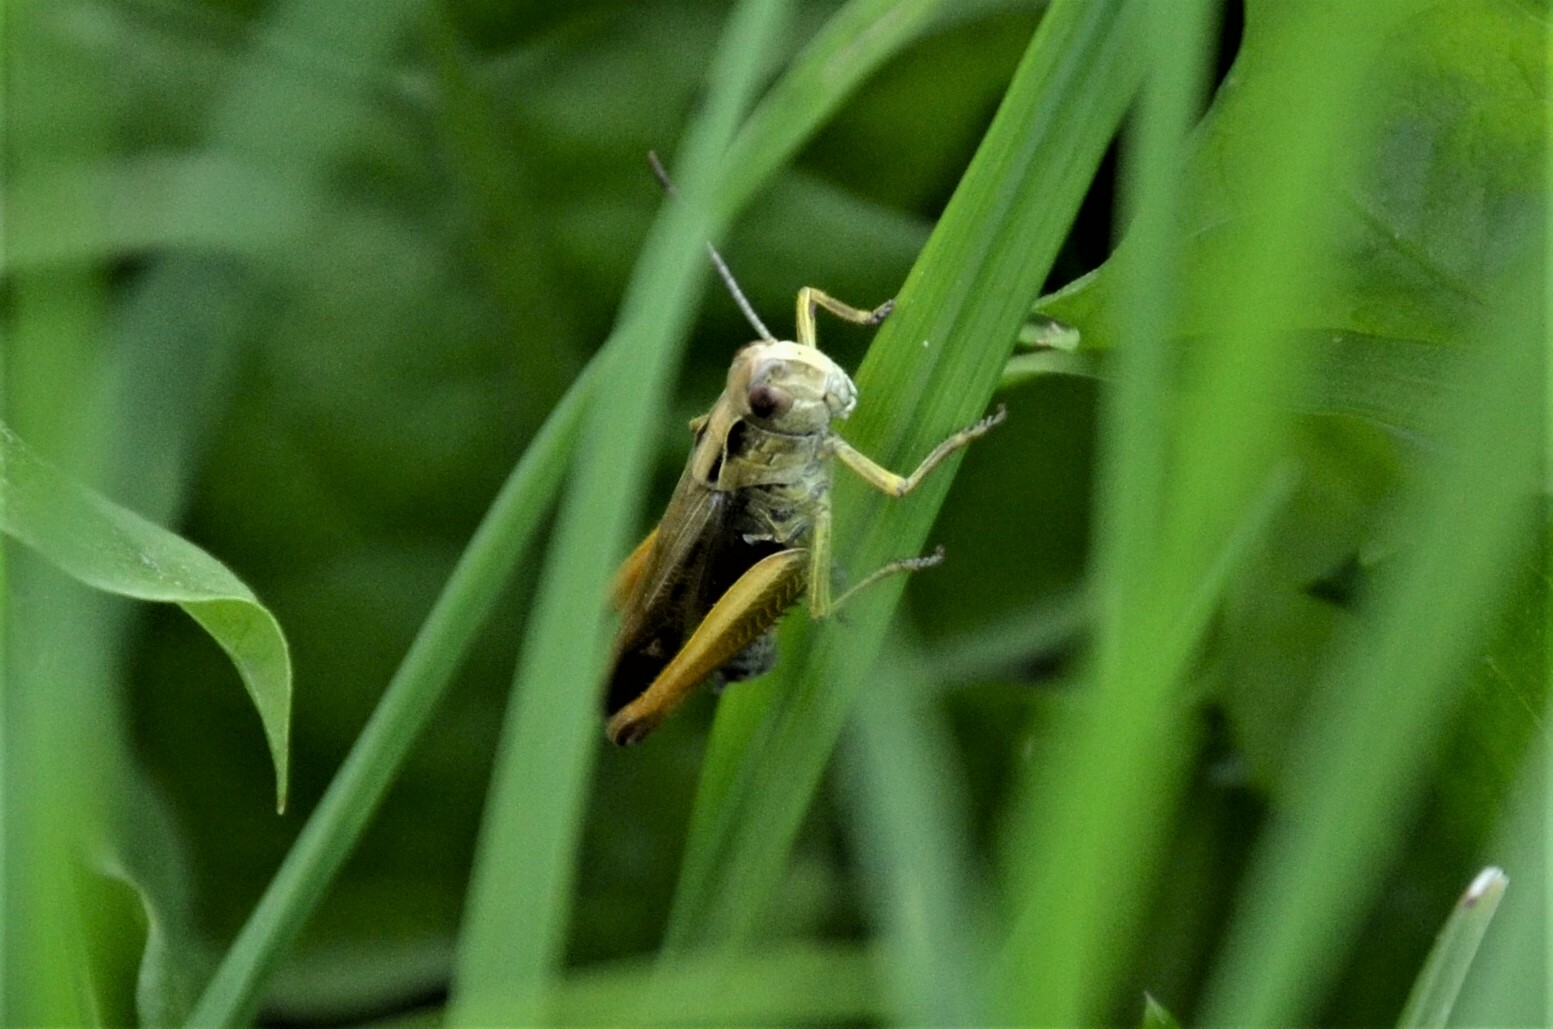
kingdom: Animalia
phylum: Arthropoda
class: Insecta
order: Orthoptera
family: Acrididae
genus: Omocestus
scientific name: Omocestus viridulus
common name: Common green grasshopper
